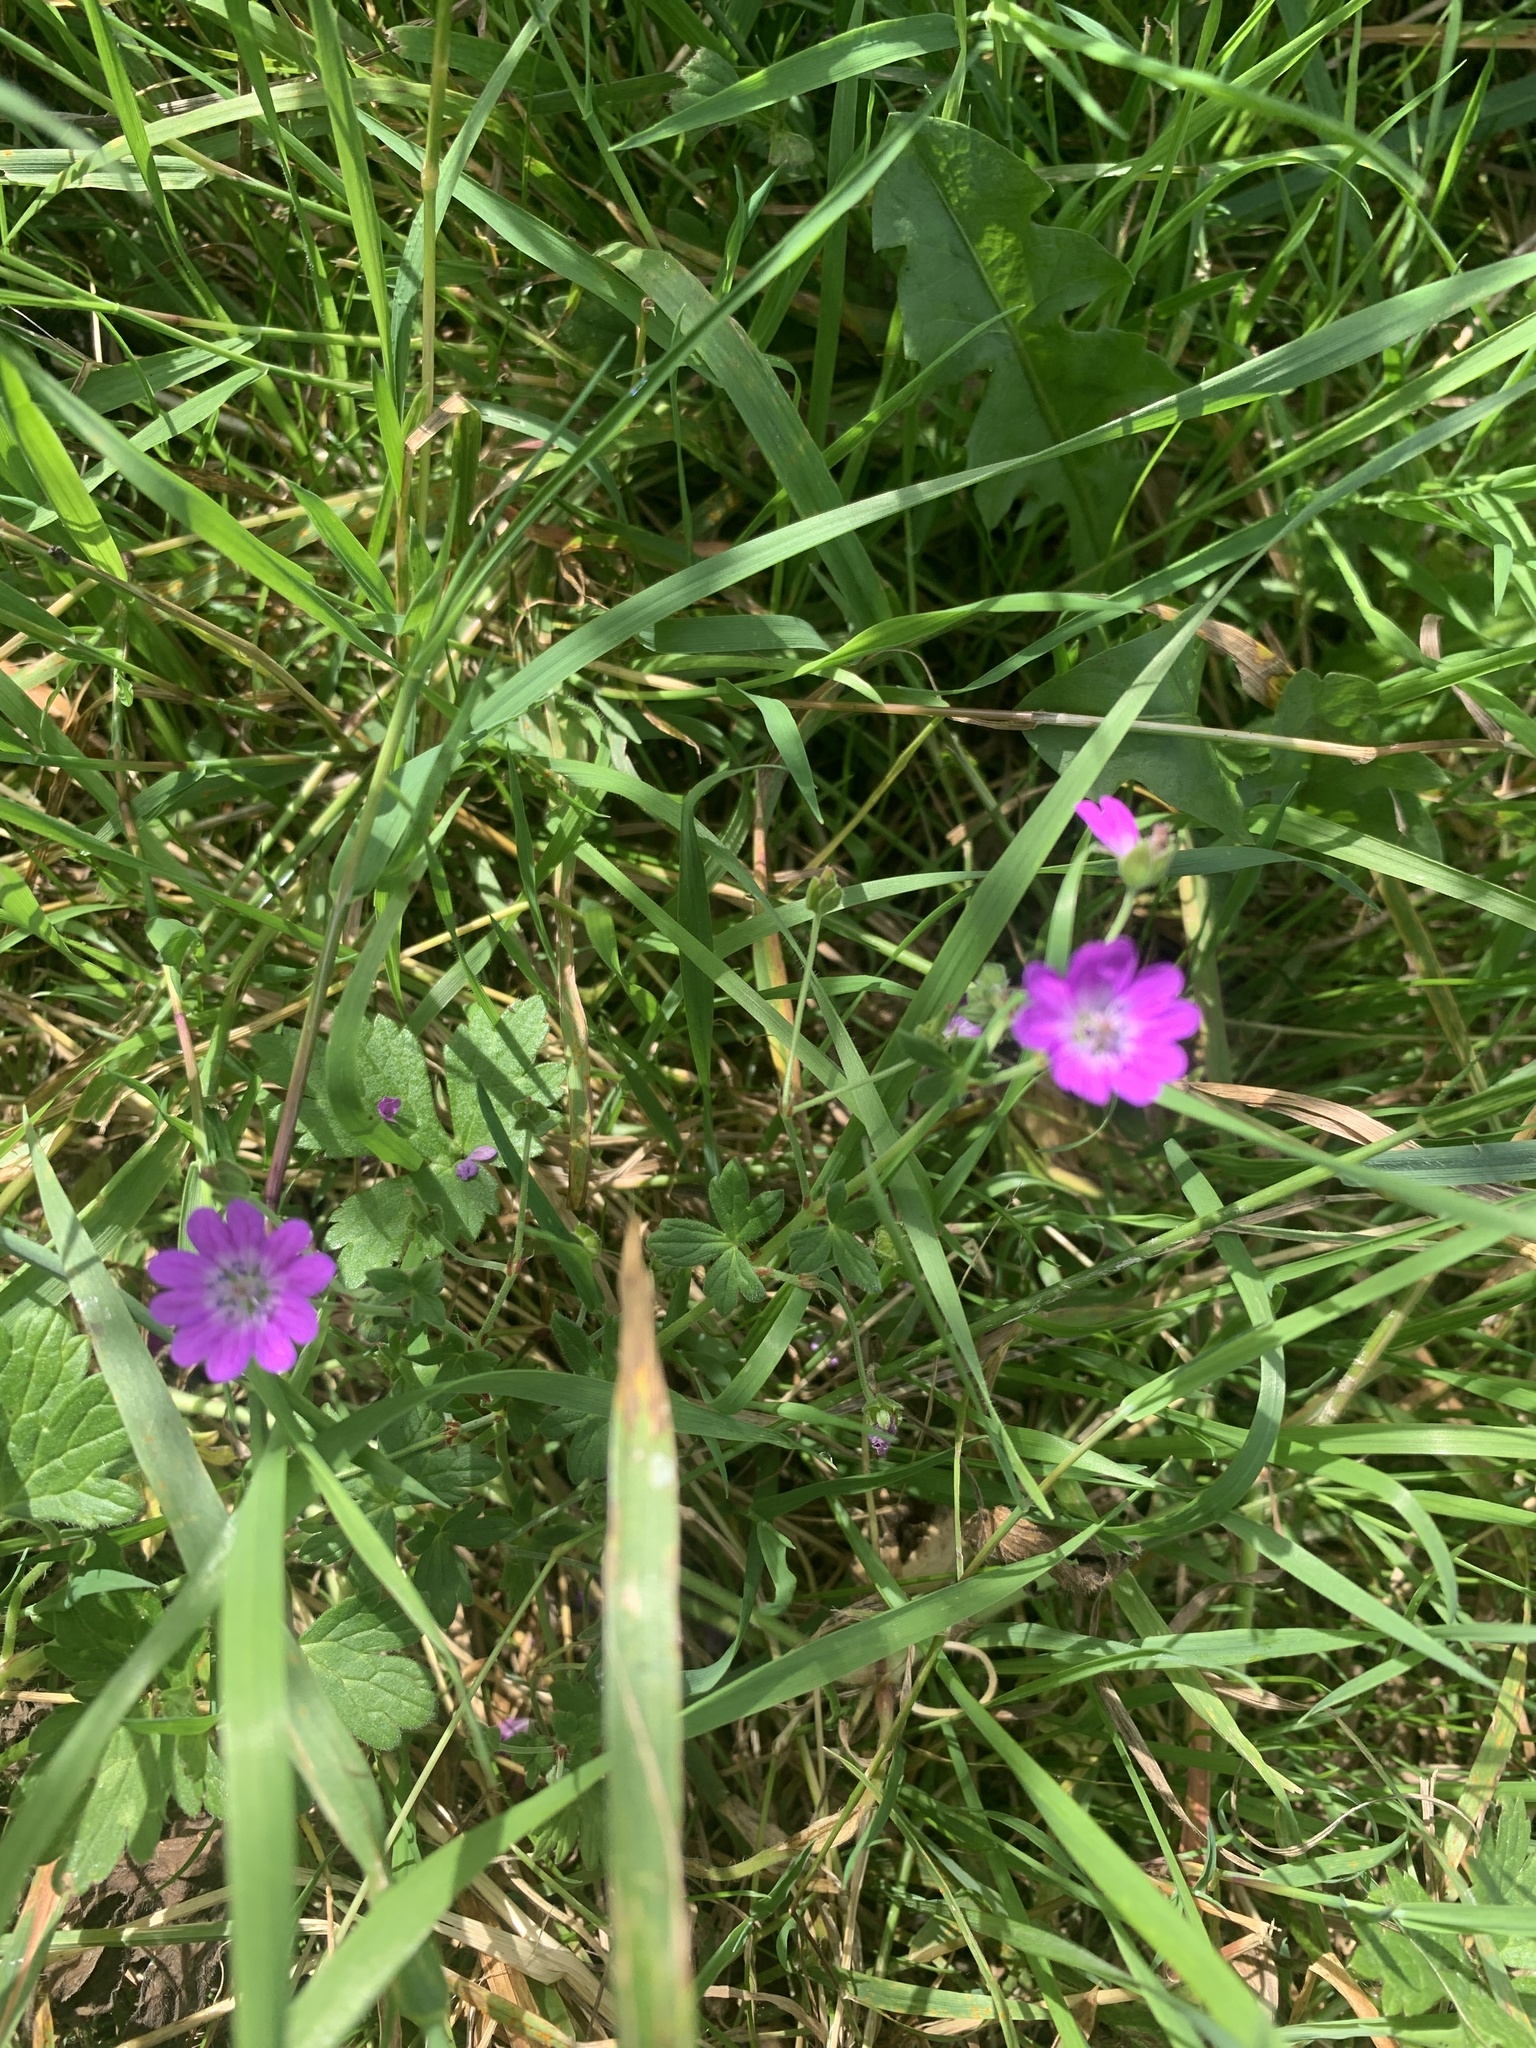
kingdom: Plantae
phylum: Tracheophyta
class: Magnoliopsida
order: Geraniales
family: Geraniaceae
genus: Geranium
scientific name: Geranium pyrenaicum
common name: Hedgerow crane's-bill
